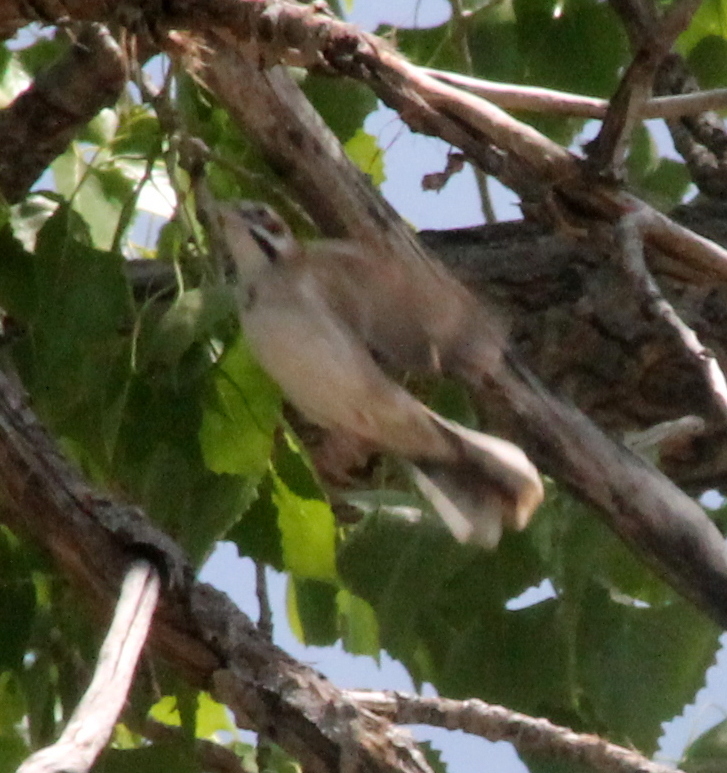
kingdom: Animalia
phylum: Chordata
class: Aves
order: Passeriformes
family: Passerellidae
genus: Chondestes
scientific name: Chondestes grammacus
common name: Lark sparrow
